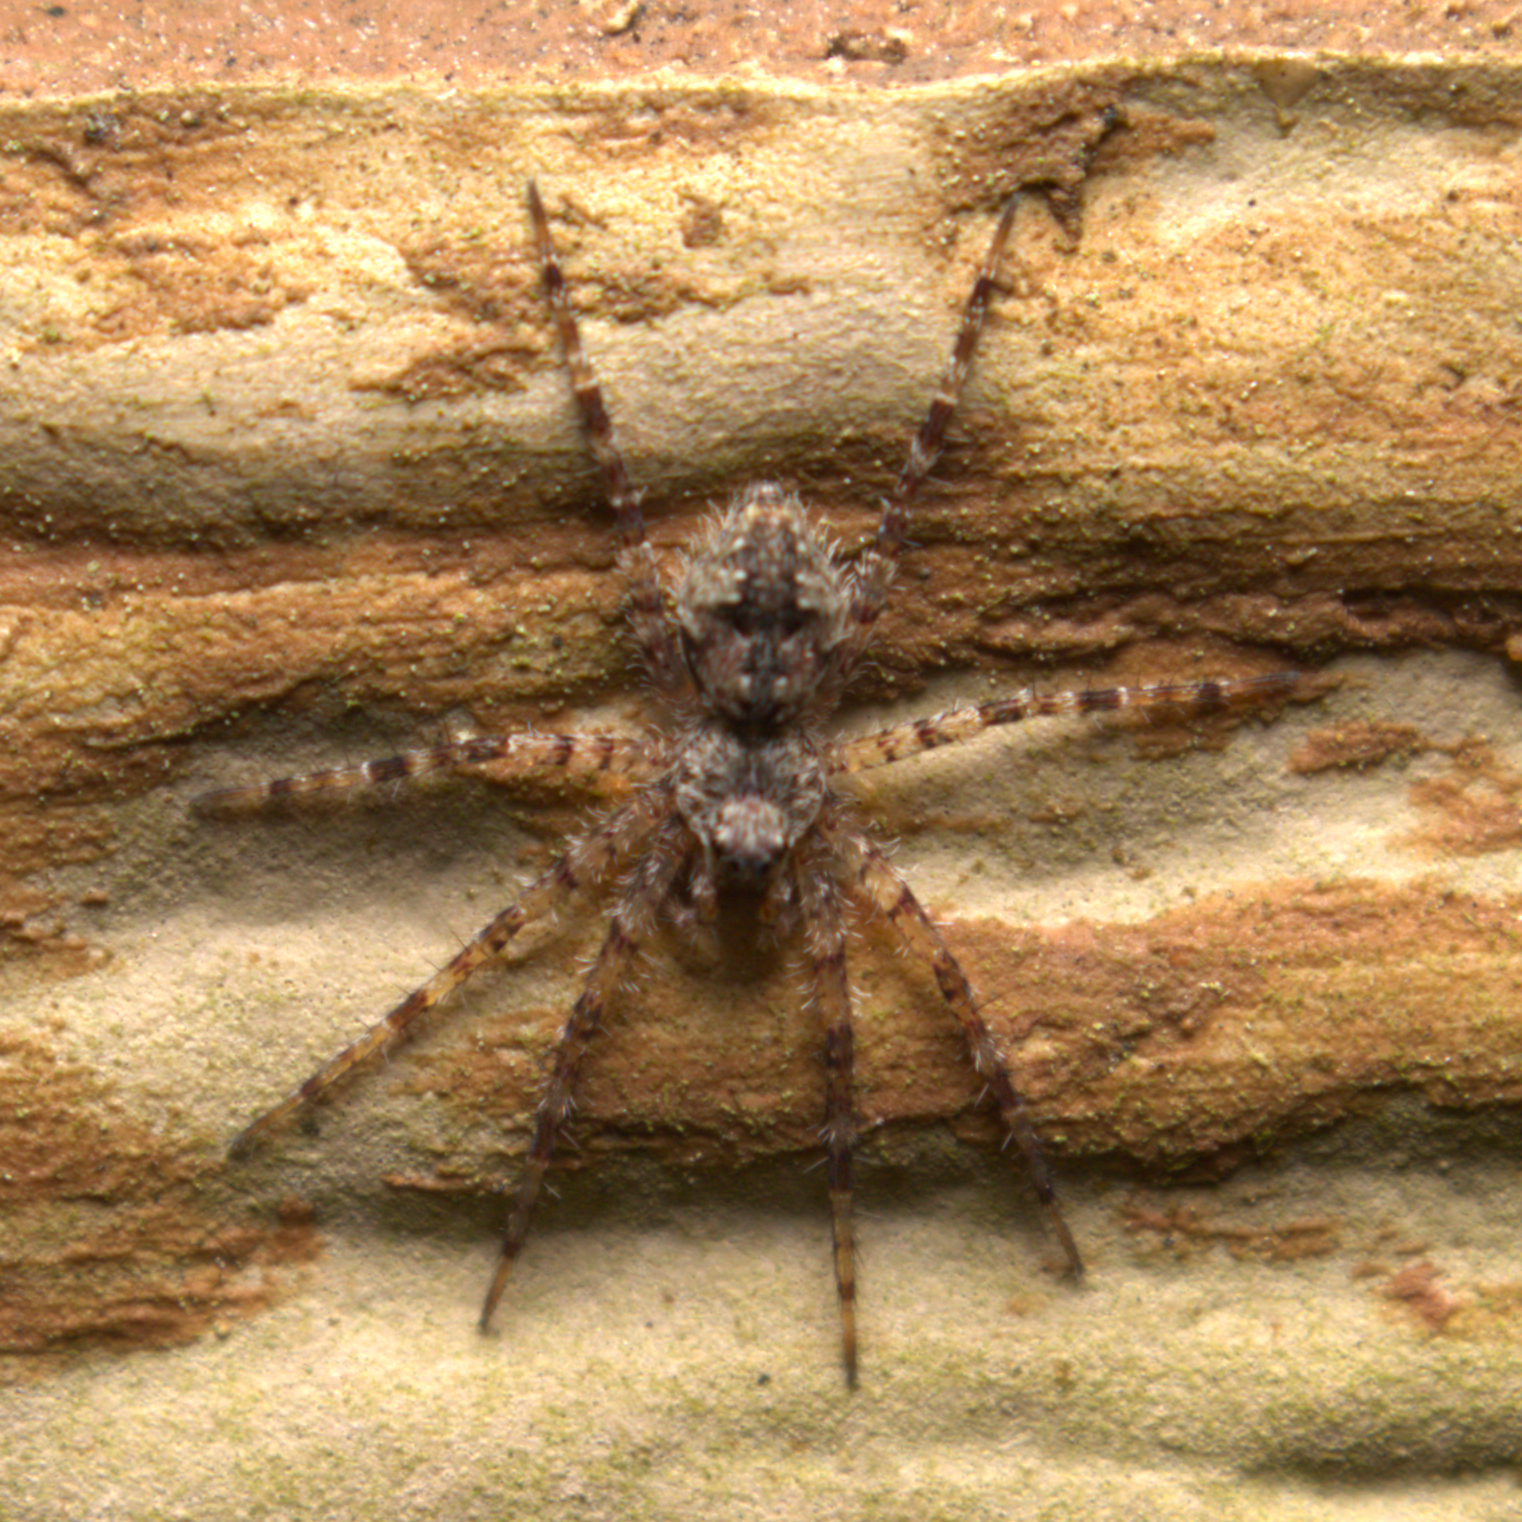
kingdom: Animalia
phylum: Arthropoda
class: Arachnida
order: Araneae
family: Pisauridae
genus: Dolomedes
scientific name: Dolomedes albineus
